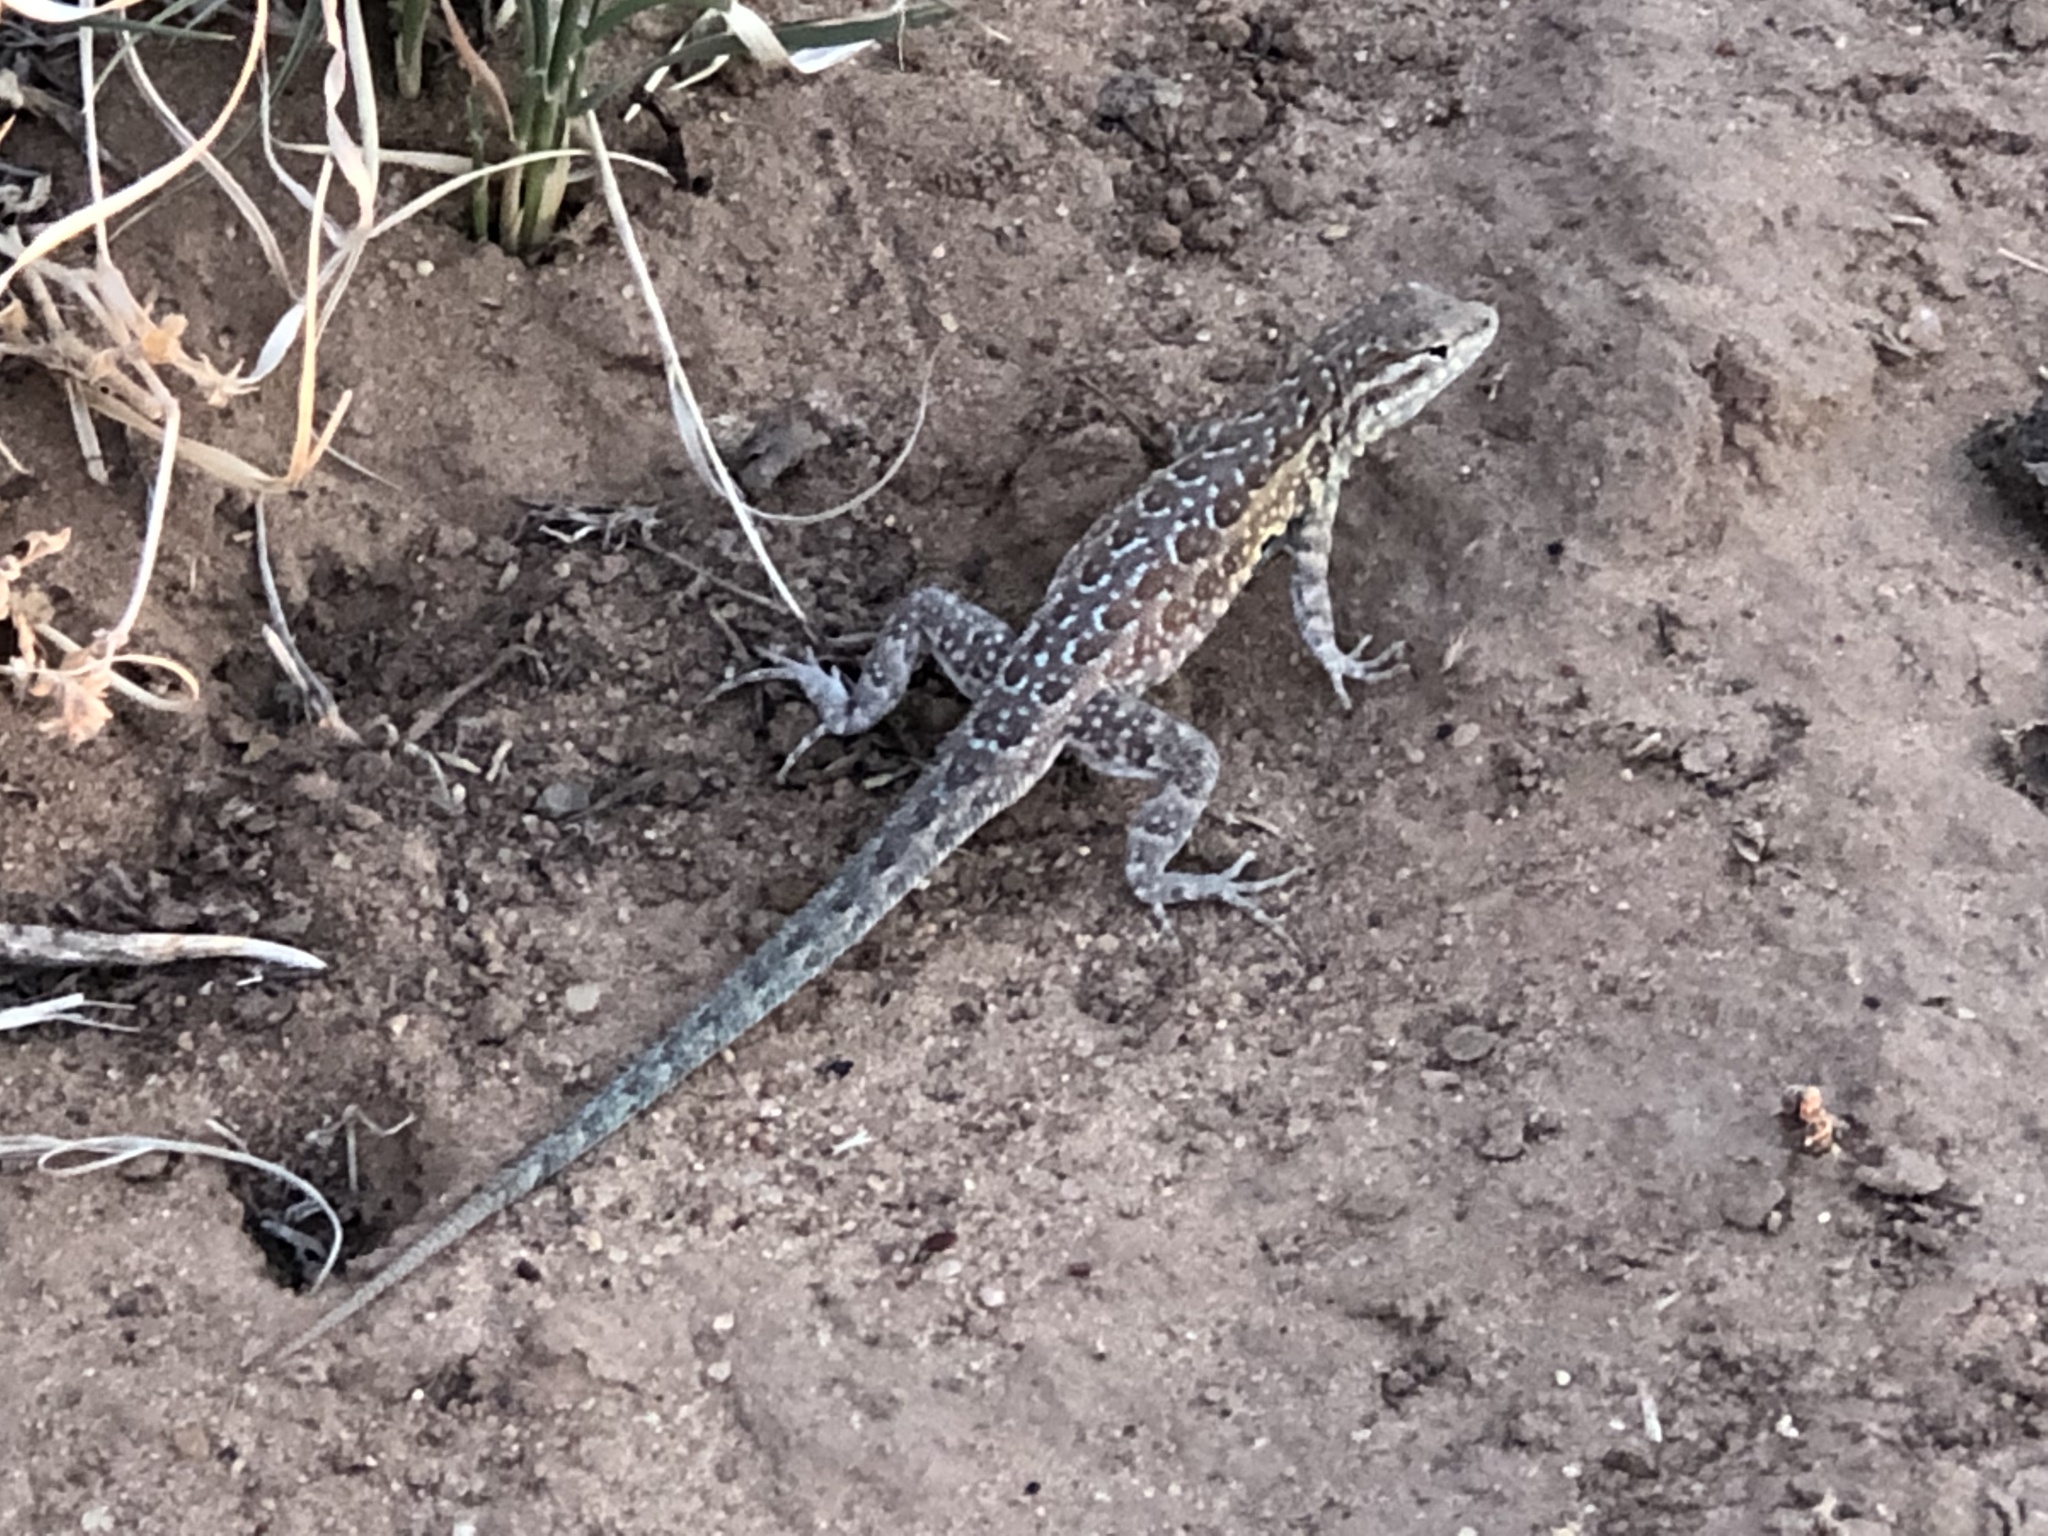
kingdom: Animalia
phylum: Chordata
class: Squamata
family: Phrynosomatidae
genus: Uta
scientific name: Uta stansburiana
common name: Side-blotched lizard
